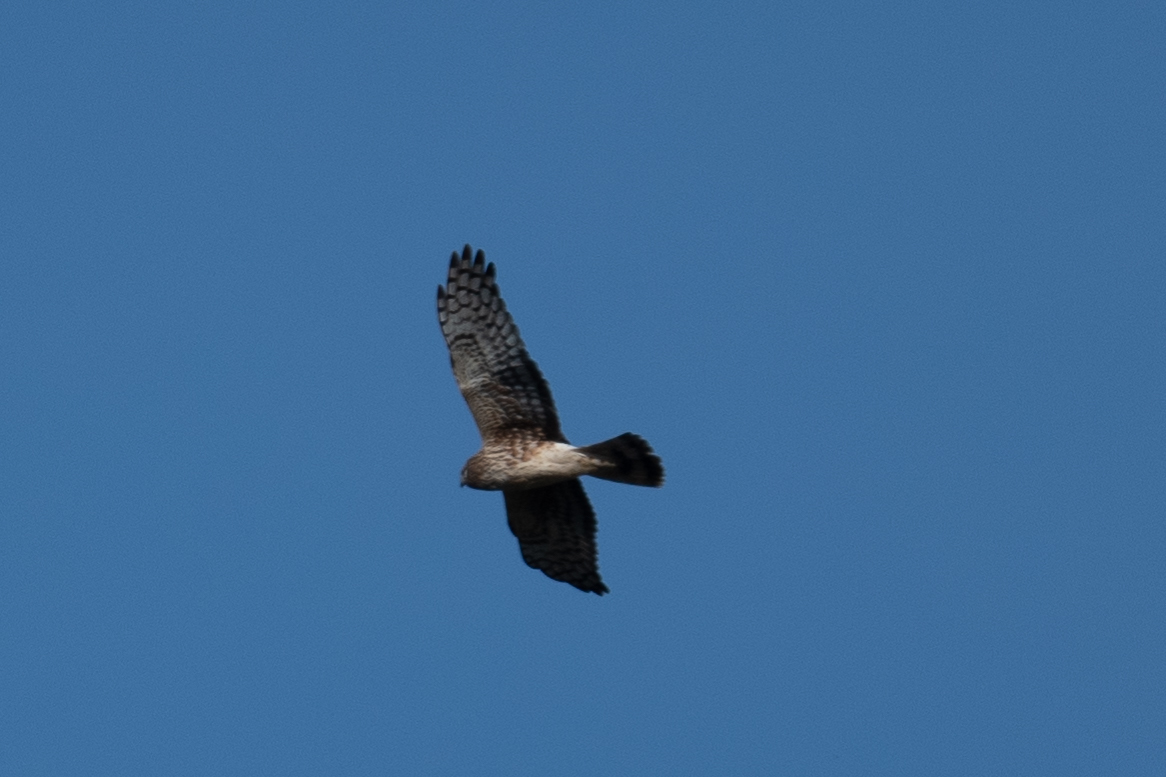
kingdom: Animalia
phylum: Chordata
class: Aves
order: Accipitriformes
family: Accipitridae
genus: Circus
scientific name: Circus cyaneus
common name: Hen harrier
